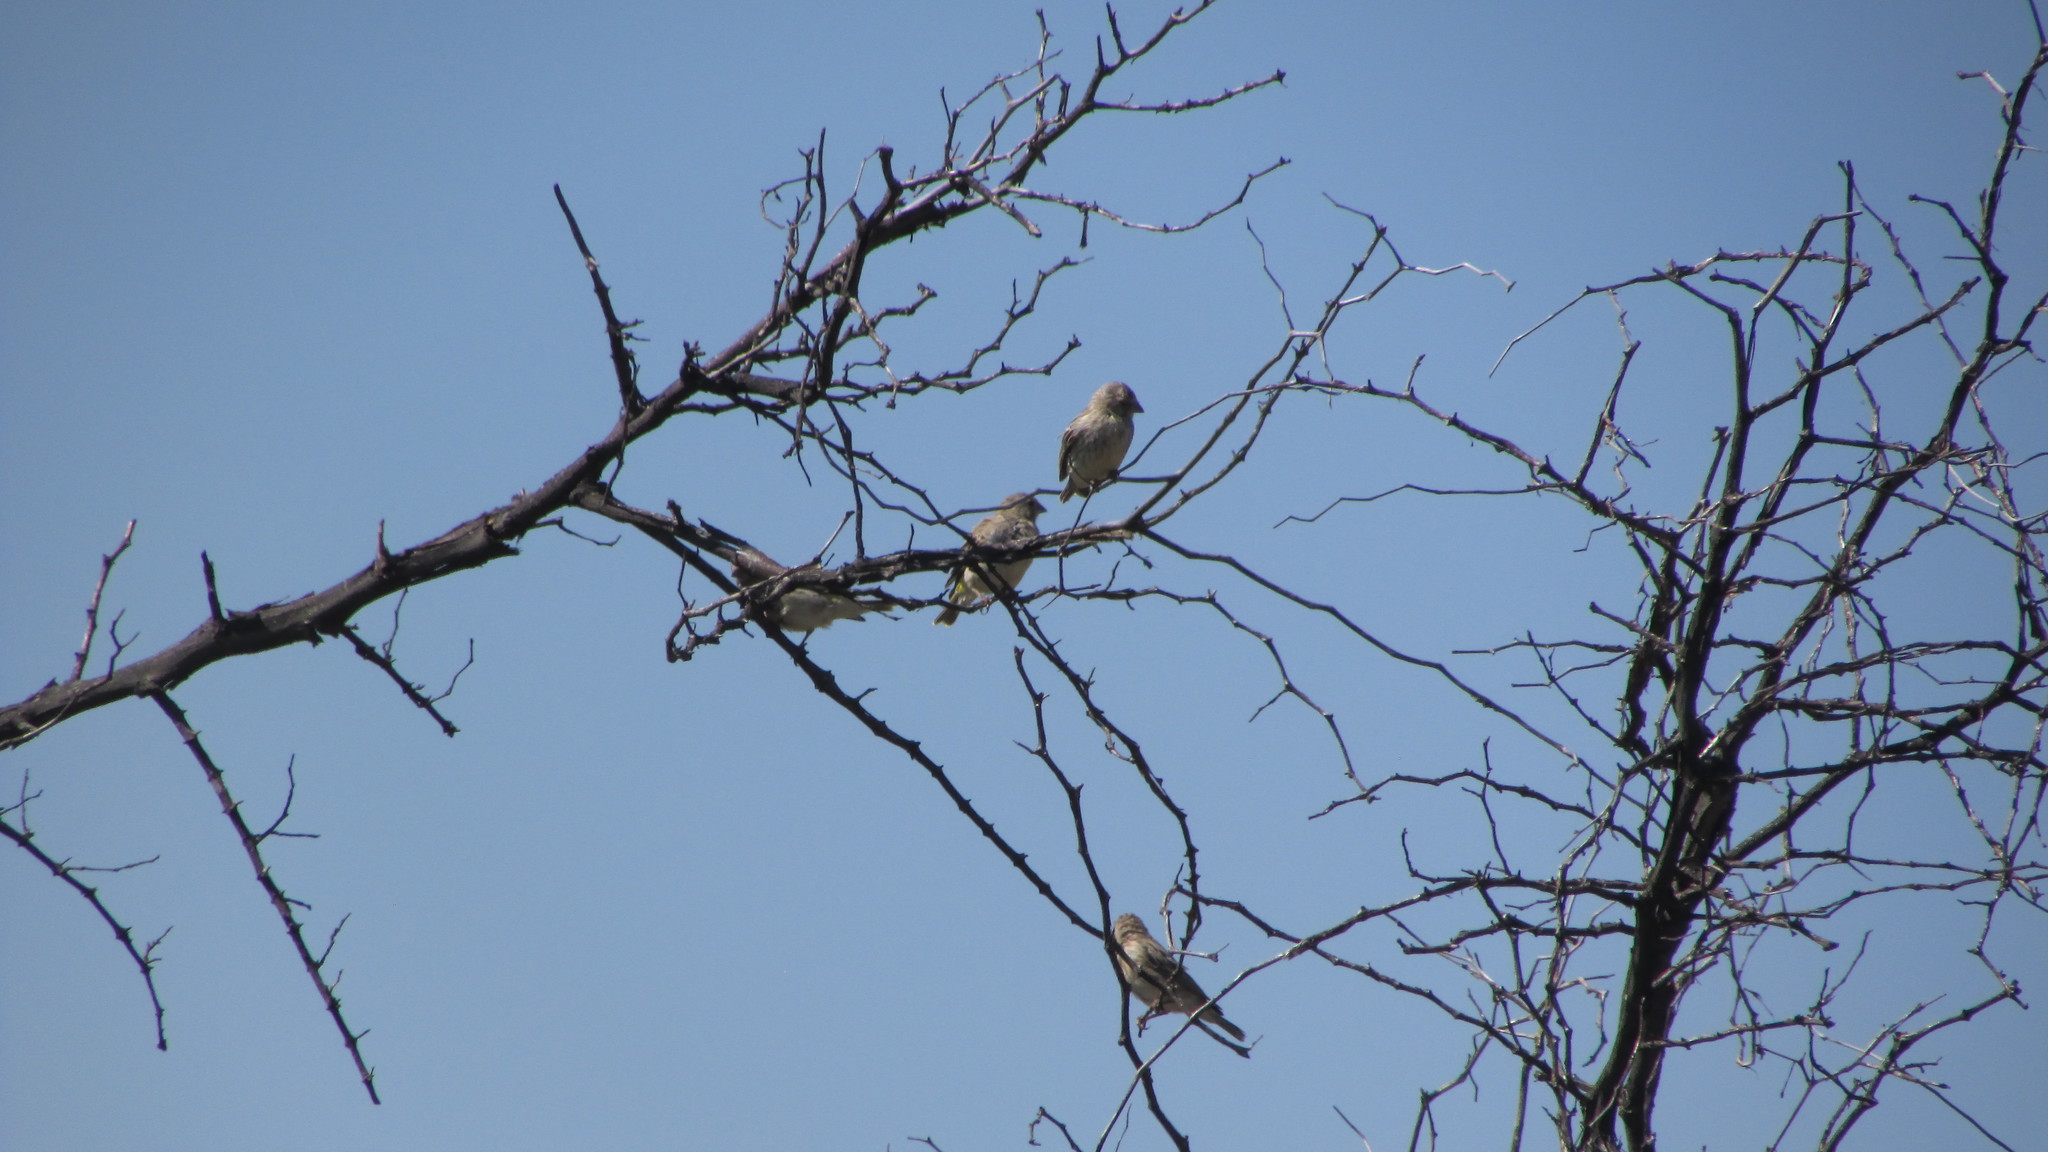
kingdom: Animalia
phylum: Chordata
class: Aves
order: Passeriformes
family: Fringillidae
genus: Crithagra
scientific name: Crithagra atrogularis
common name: Black-throated canary
